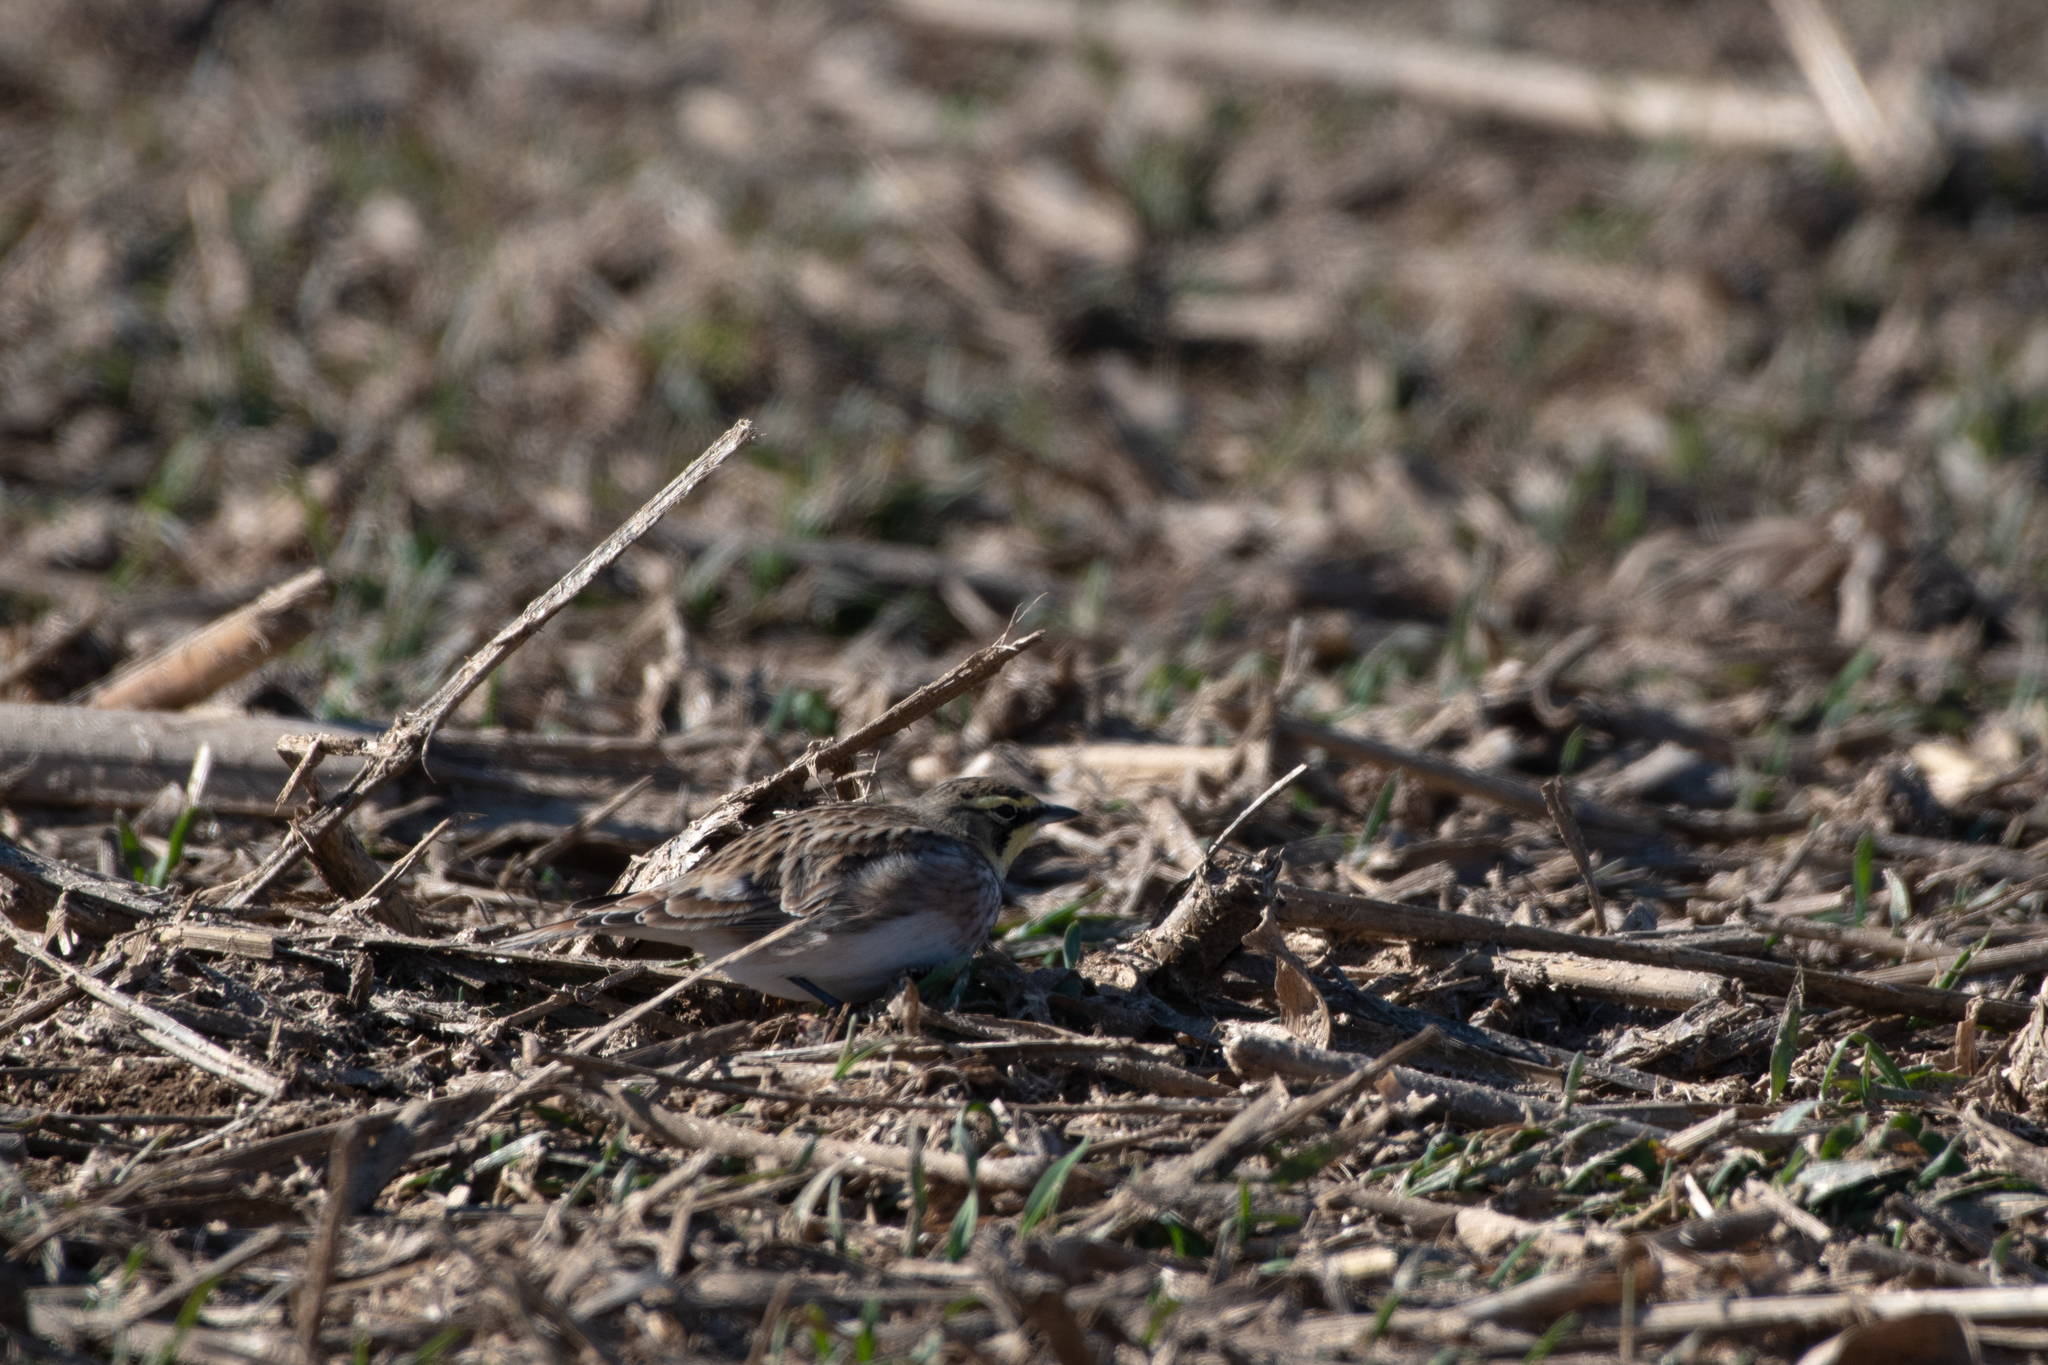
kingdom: Animalia
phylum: Chordata
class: Aves
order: Passeriformes
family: Alaudidae
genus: Eremophila
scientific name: Eremophila alpestris
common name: Horned lark
